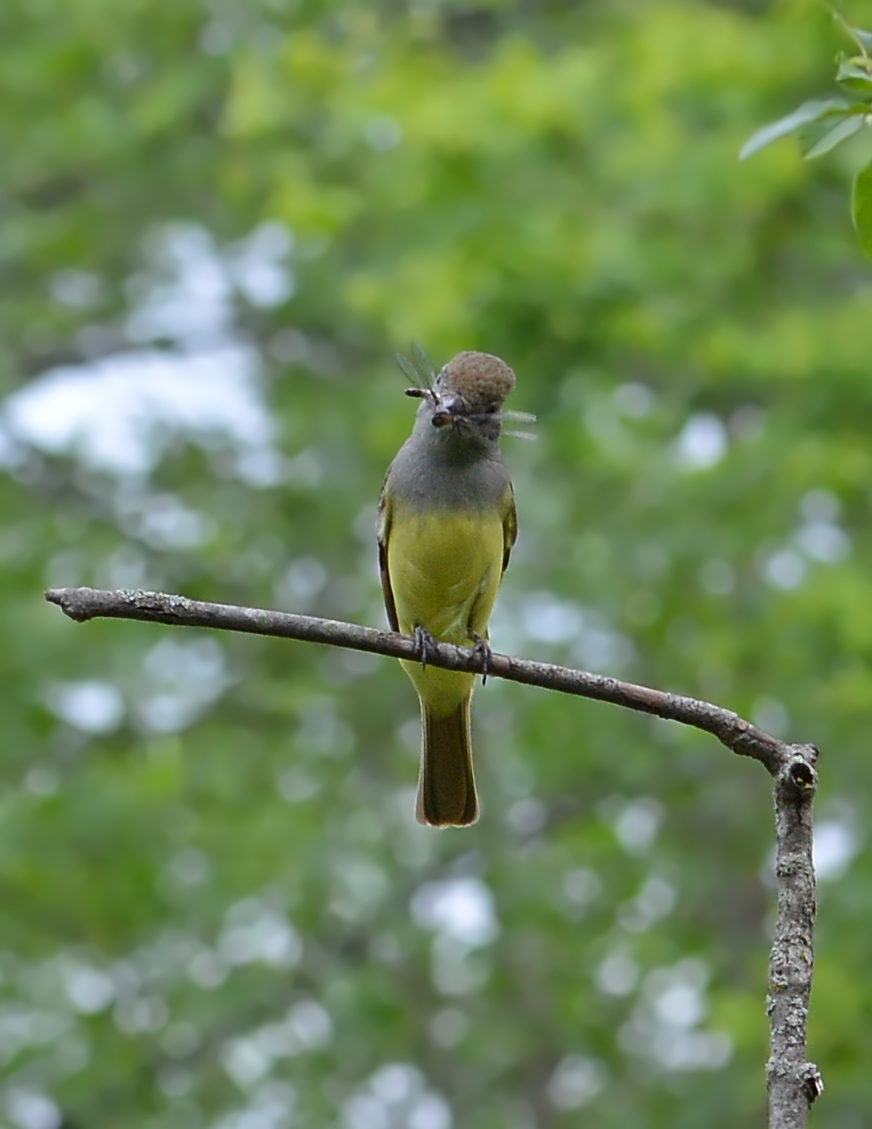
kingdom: Animalia
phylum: Chordata
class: Aves
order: Passeriformes
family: Tyrannidae
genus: Myiarchus
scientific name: Myiarchus crinitus
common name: Great crested flycatcher
